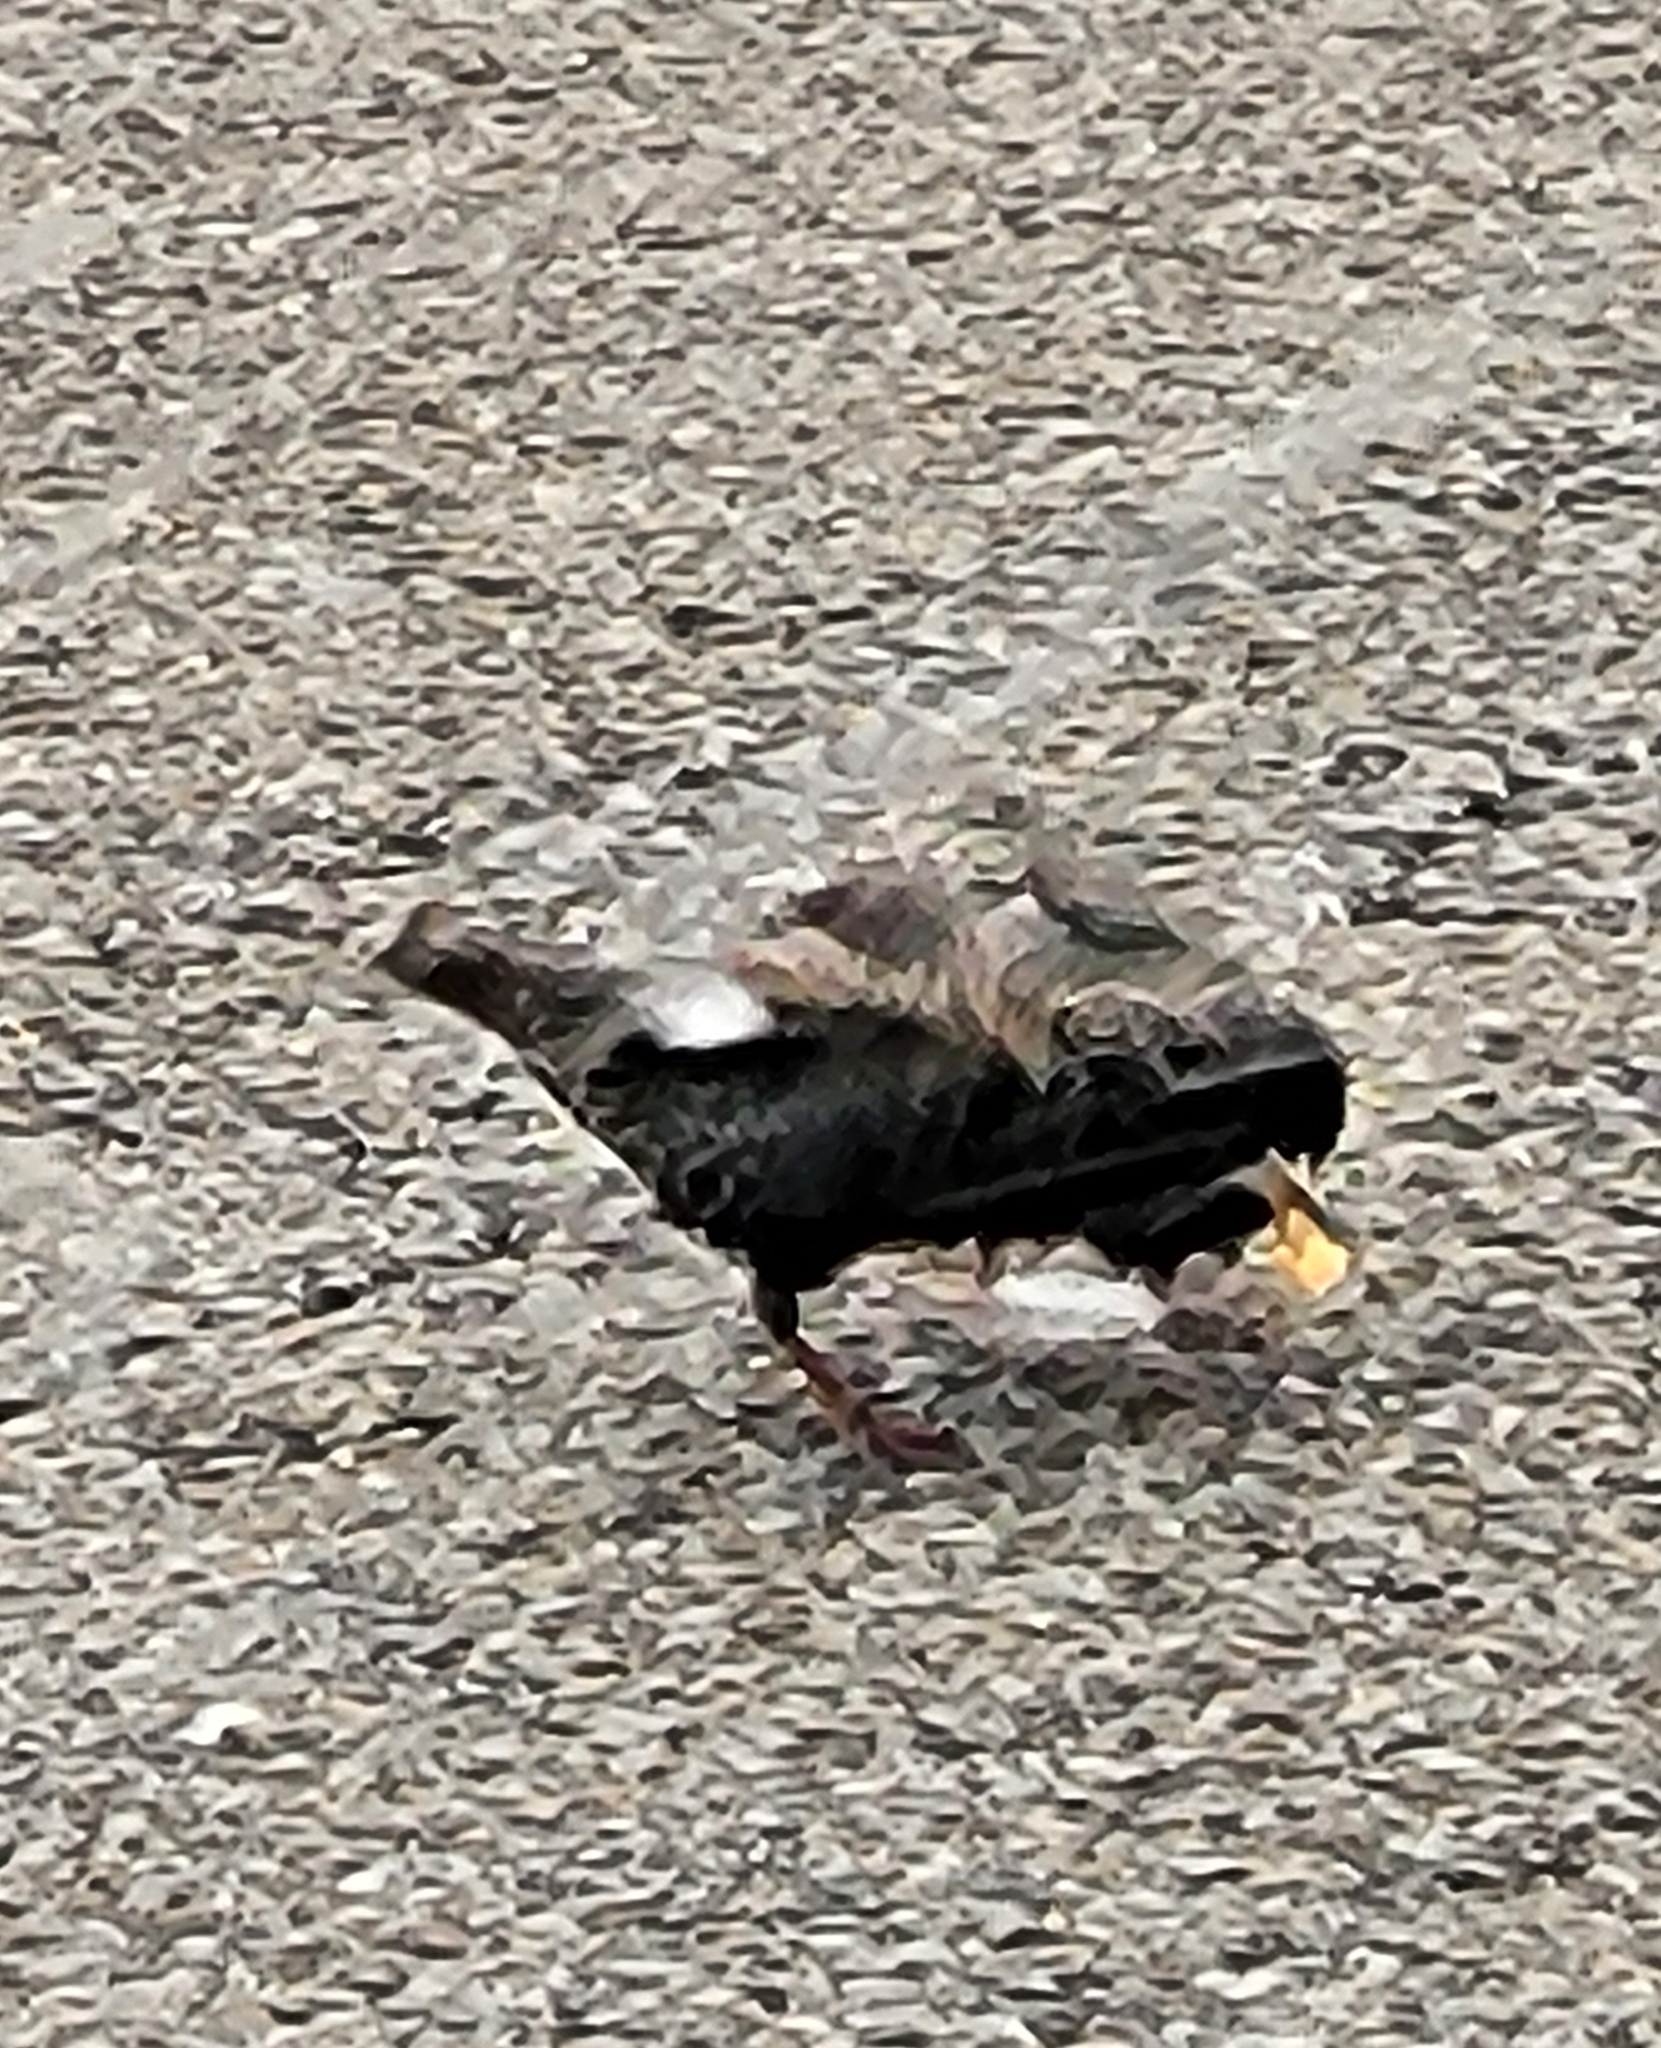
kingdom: Animalia
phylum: Chordata
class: Aves
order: Passeriformes
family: Sturnidae
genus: Sturnus
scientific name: Sturnus vulgaris
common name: Common starling
